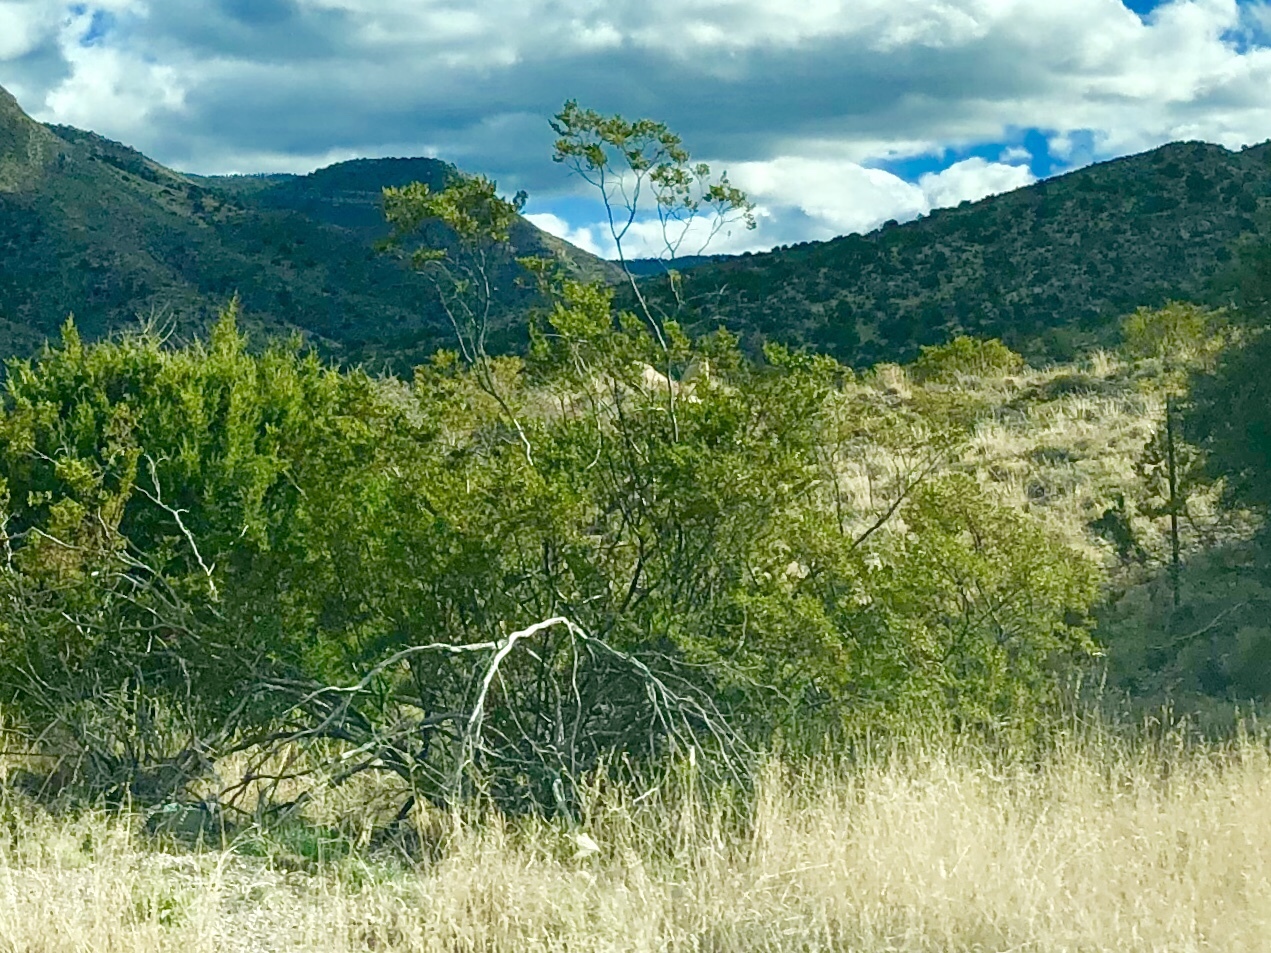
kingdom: Plantae
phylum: Tracheophyta
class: Magnoliopsida
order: Zygophyllales
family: Zygophyllaceae
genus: Larrea
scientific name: Larrea tridentata
